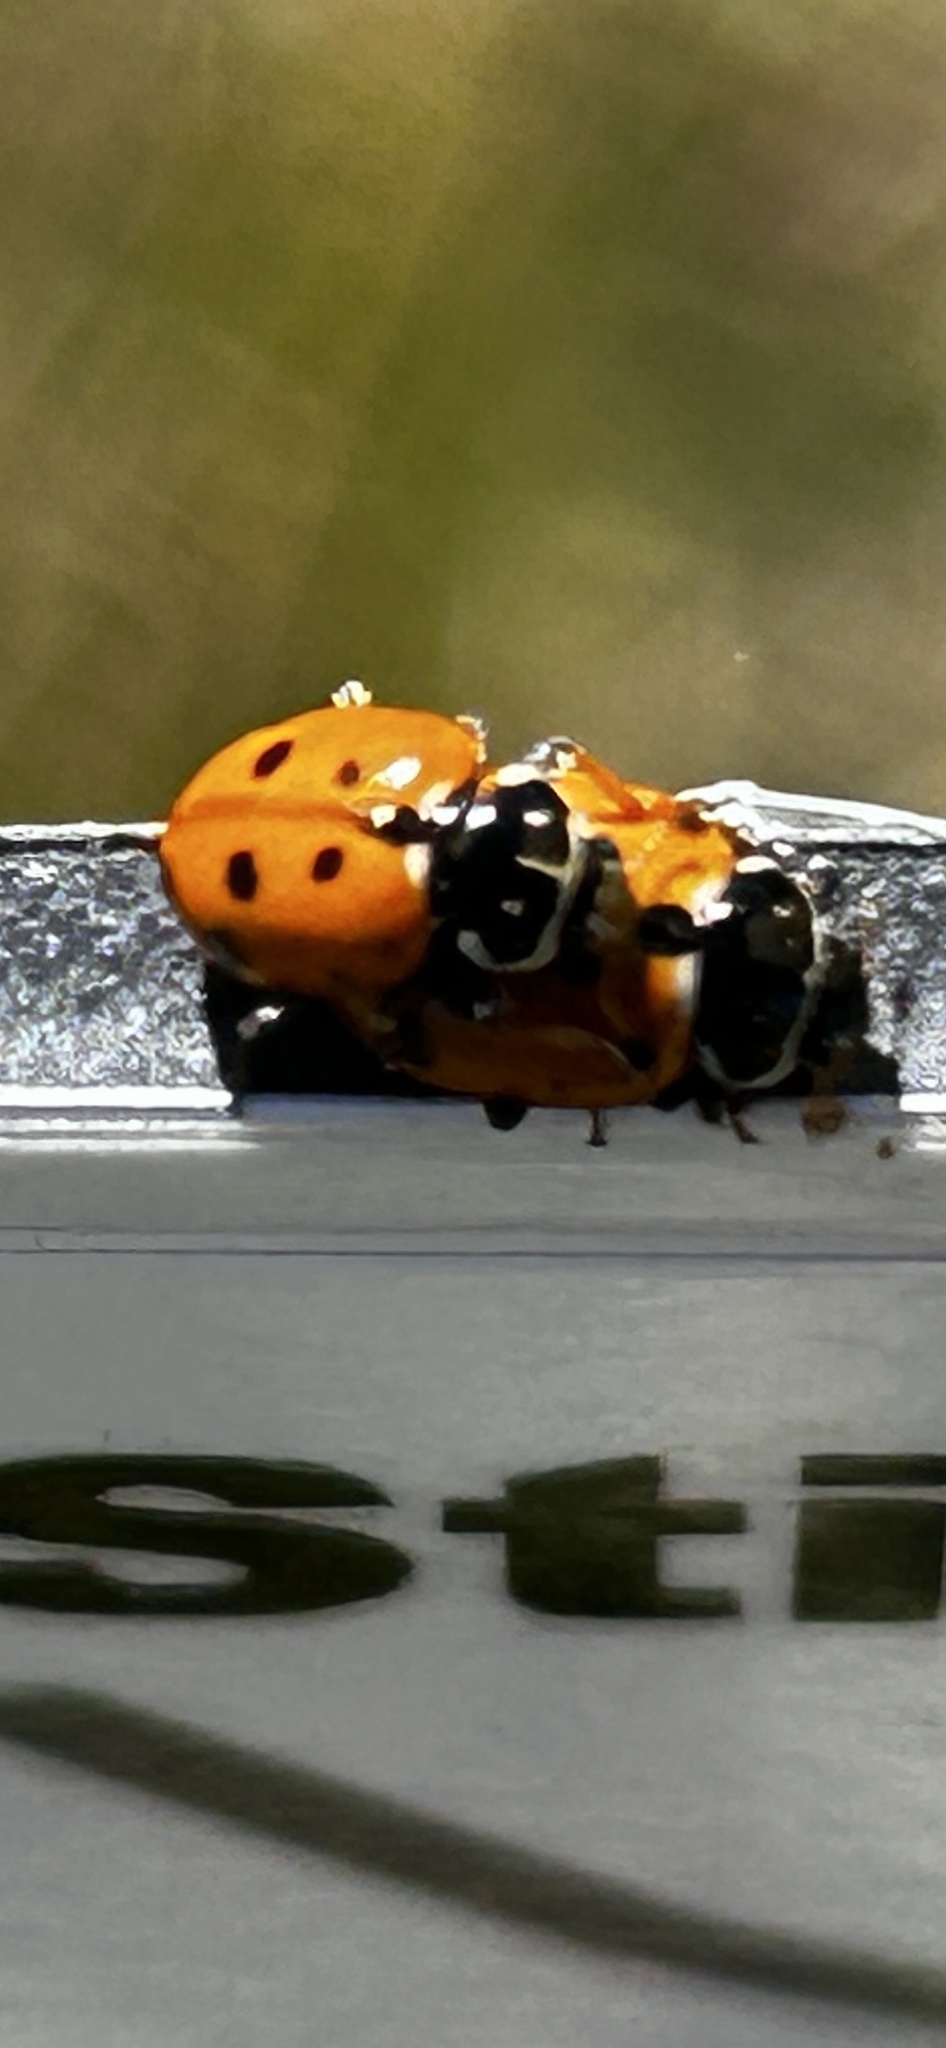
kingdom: Animalia
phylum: Arthropoda
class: Insecta
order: Coleoptera
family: Coccinellidae
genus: Hippodamia
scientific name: Hippodamia variegata
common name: Ladybird beetle
